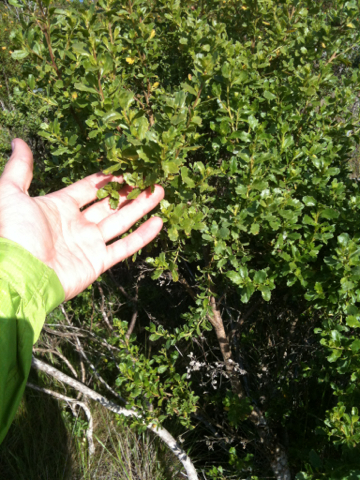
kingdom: Plantae
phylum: Tracheophyta
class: Magnoliopsida
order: Asterales
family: Asteraceae
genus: Baccharis
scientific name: Baccharis pilularis
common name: Coyotebrush
